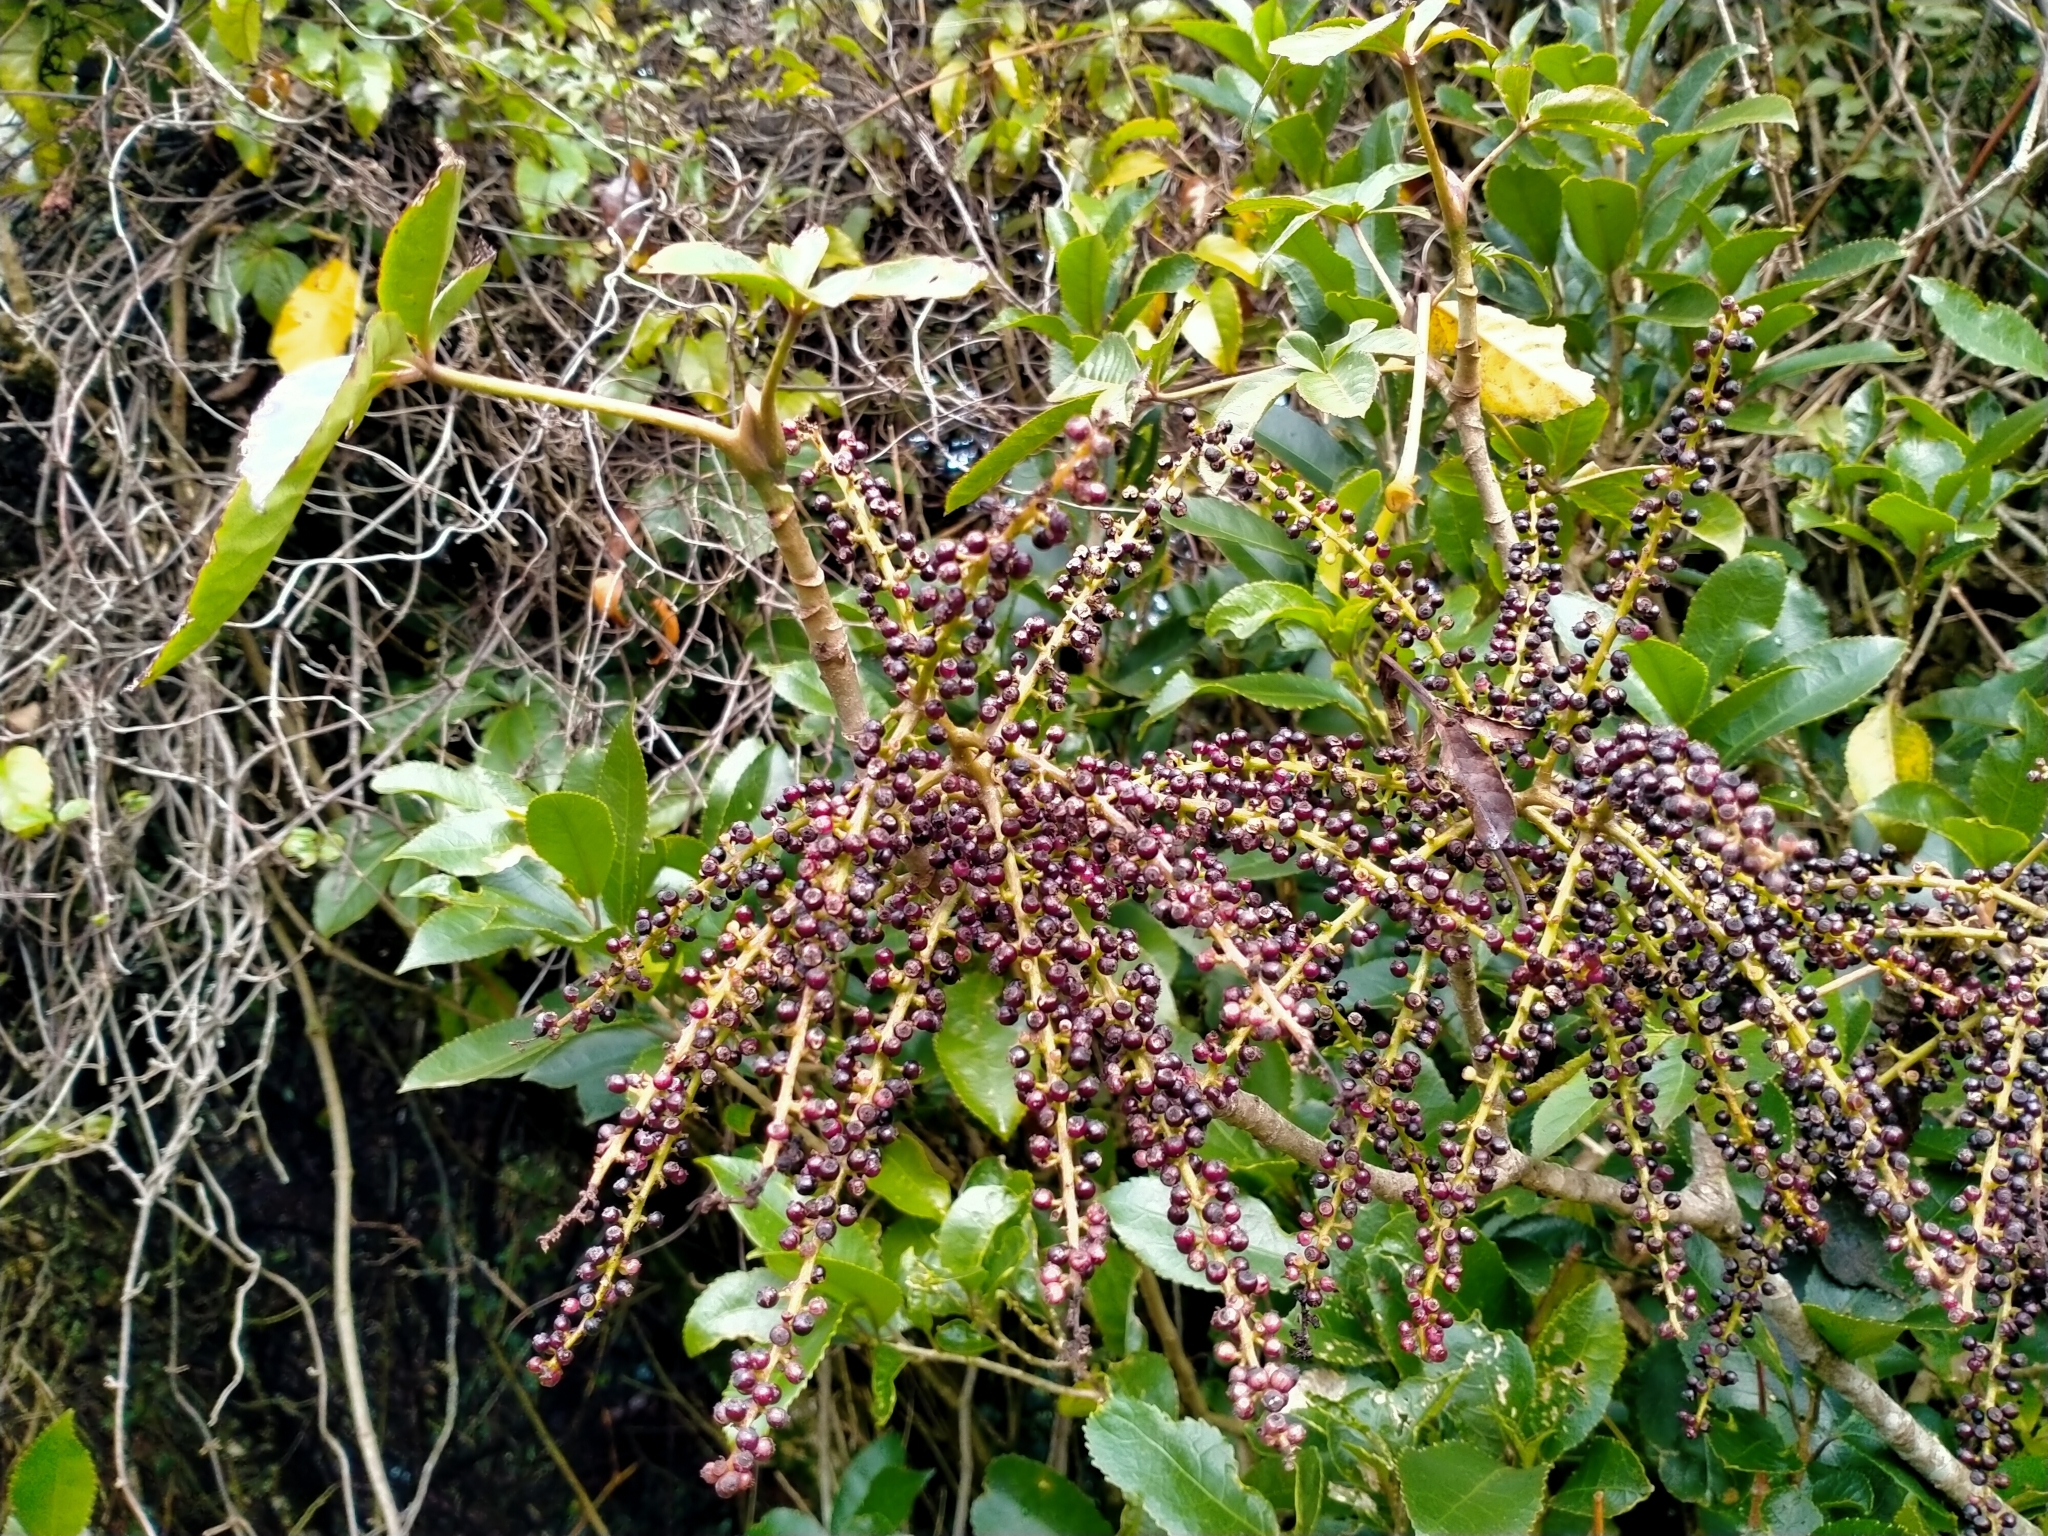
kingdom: Plantae
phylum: Tracheophyta
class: Magnoliopsida
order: Apiales
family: Araliaceae
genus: Schefflera
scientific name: Schefflera digitata
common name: Pate
